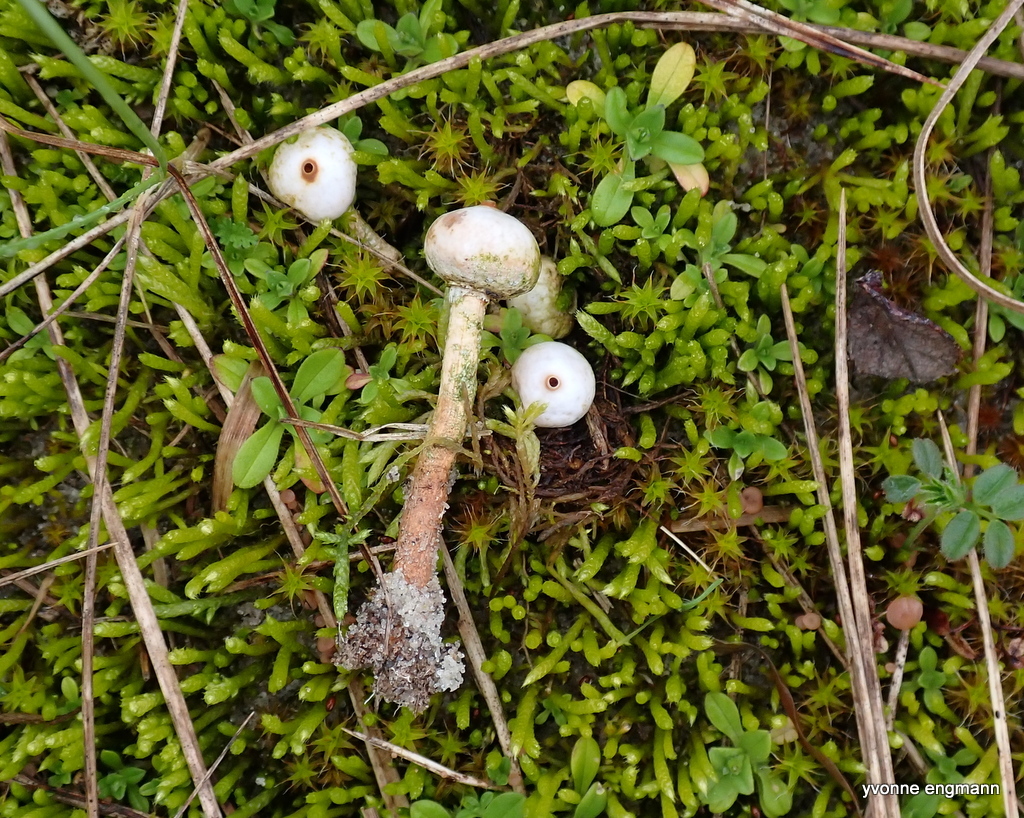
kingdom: Fungi
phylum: Basidiomycota
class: Agaricomycetes
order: Agaricales
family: Agaricaceae
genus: Tulostoma
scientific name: Tulostoma brumale
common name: Winter stalk puffball
